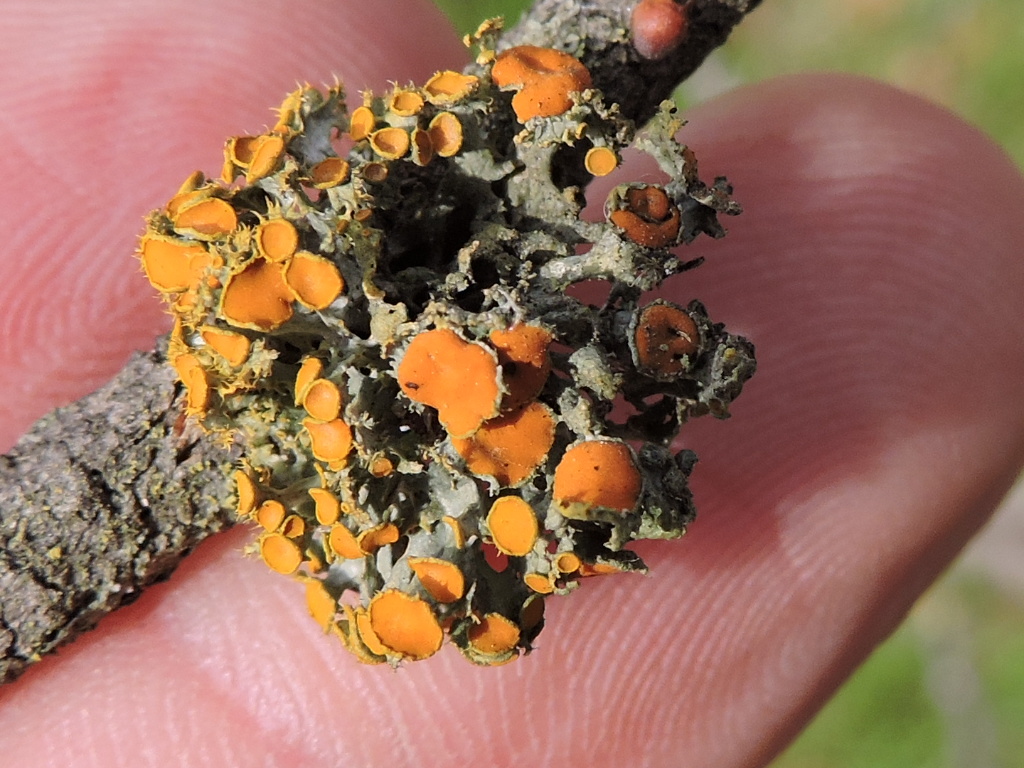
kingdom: Fungi
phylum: Ascomycota
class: Lecanoromycetes
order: Teloschistales
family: Teloschistaceae
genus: Niorma
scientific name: Niorma chrysophthalma
